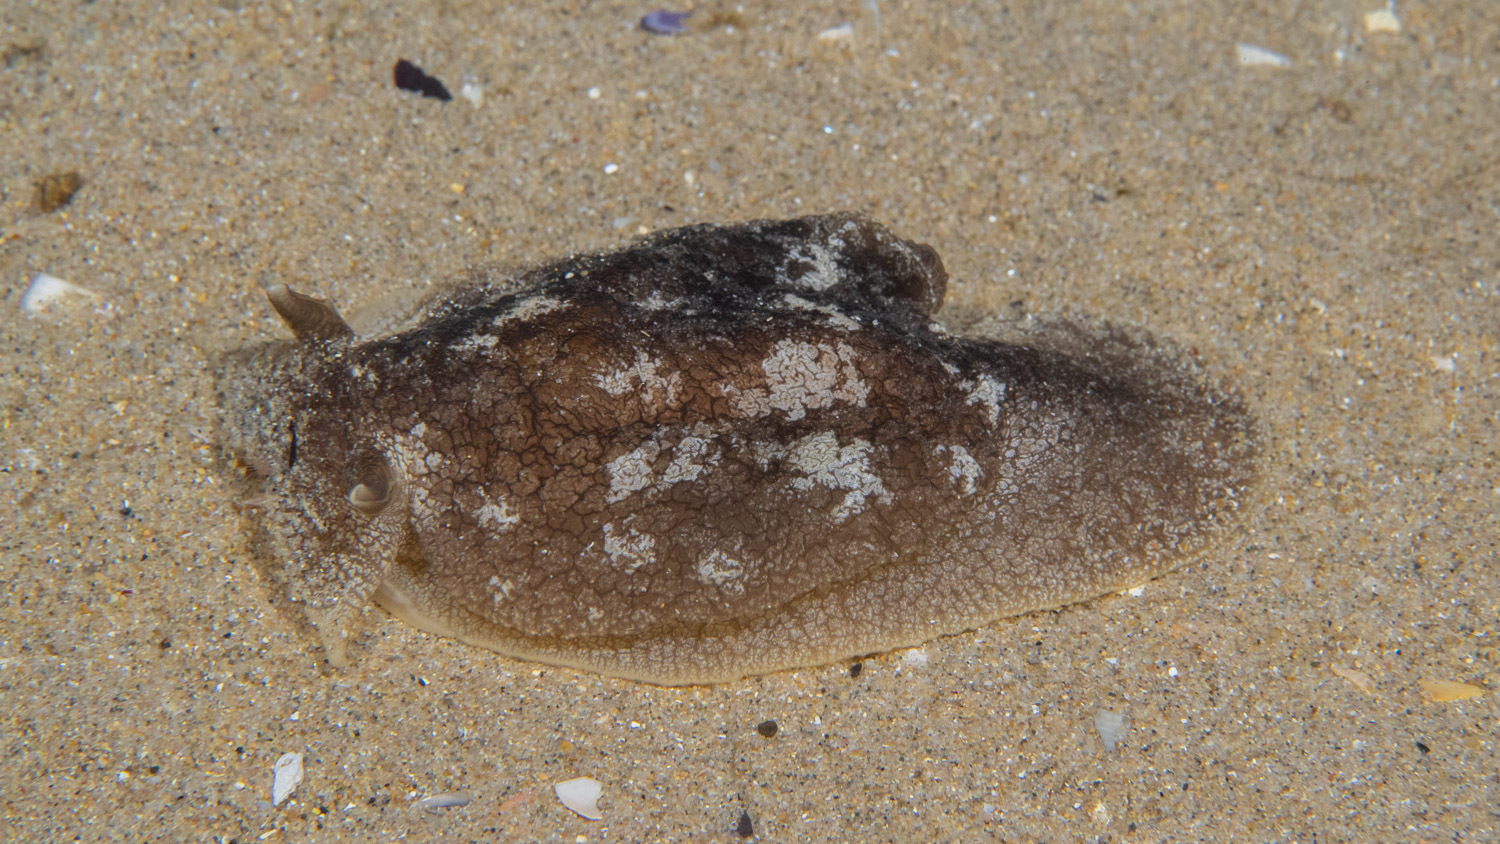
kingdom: Animalia
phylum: Mollusca
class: Gastropoda
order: Pleurobranchida
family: Pleurobranchaeidae
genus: Pleurobranchaea
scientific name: Pleurobranchaea maculata
